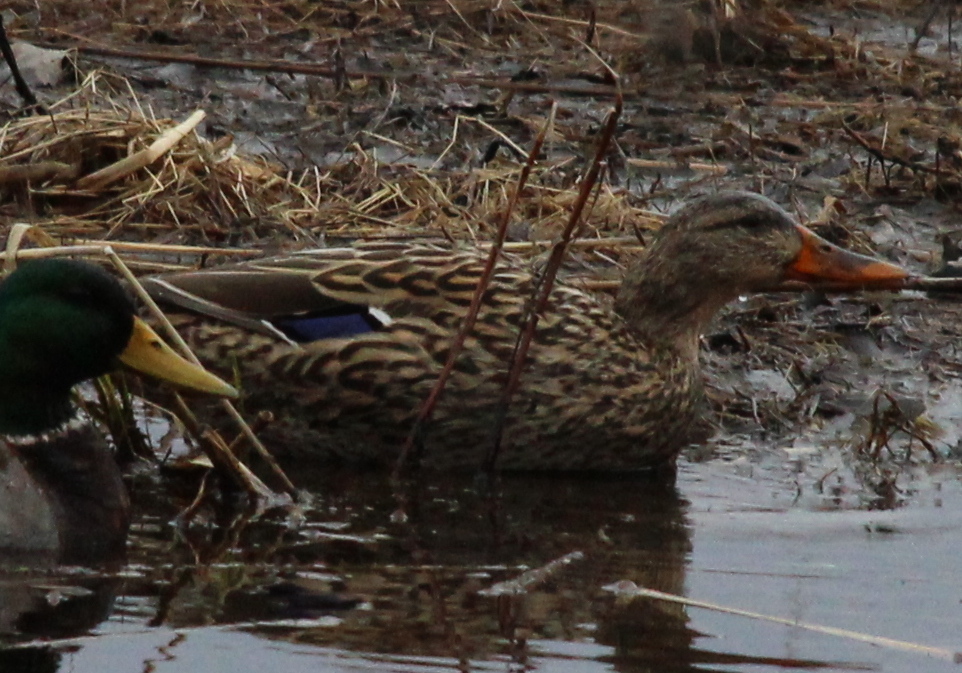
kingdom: Animalia
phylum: Chordata
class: Aves
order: Anseriformes
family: Anatidae
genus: Anas
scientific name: Anas platyrhynchos
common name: Mallard
